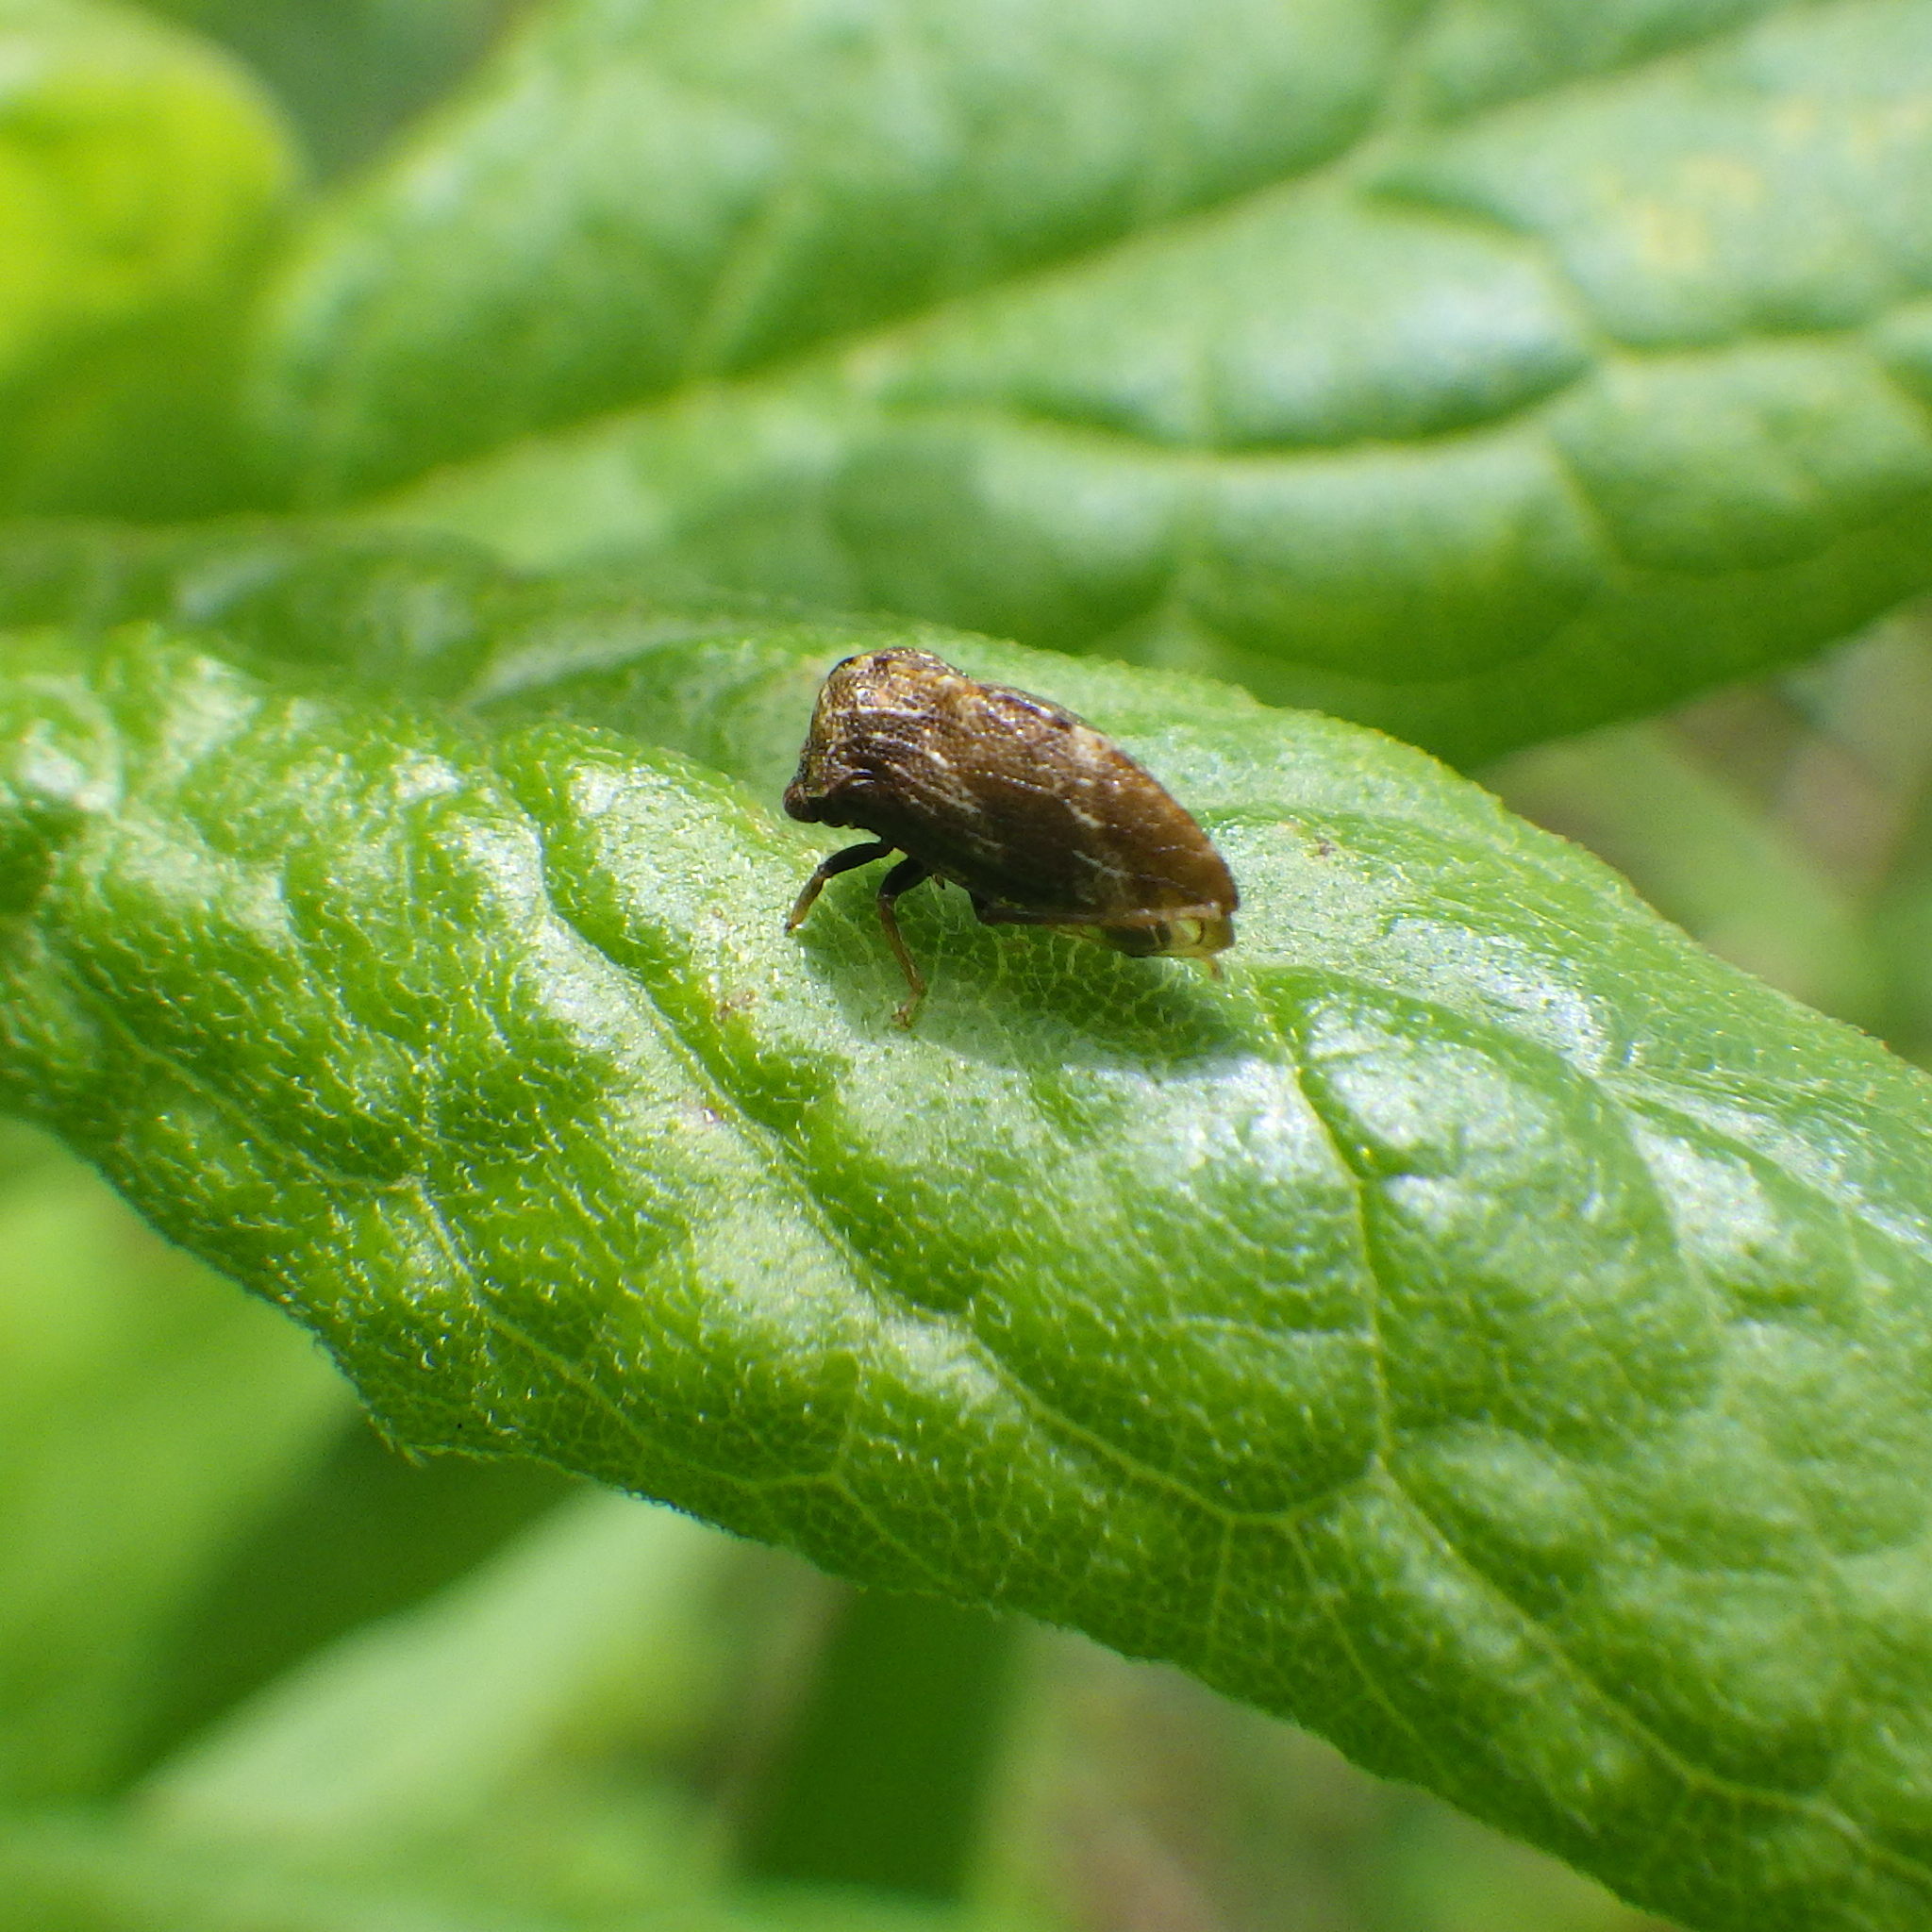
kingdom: Animalia
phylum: Arthropoda
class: Insecta
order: Hemiptera
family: Membracidae
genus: Publilia
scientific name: Publilia concava
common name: Aster treehopper
